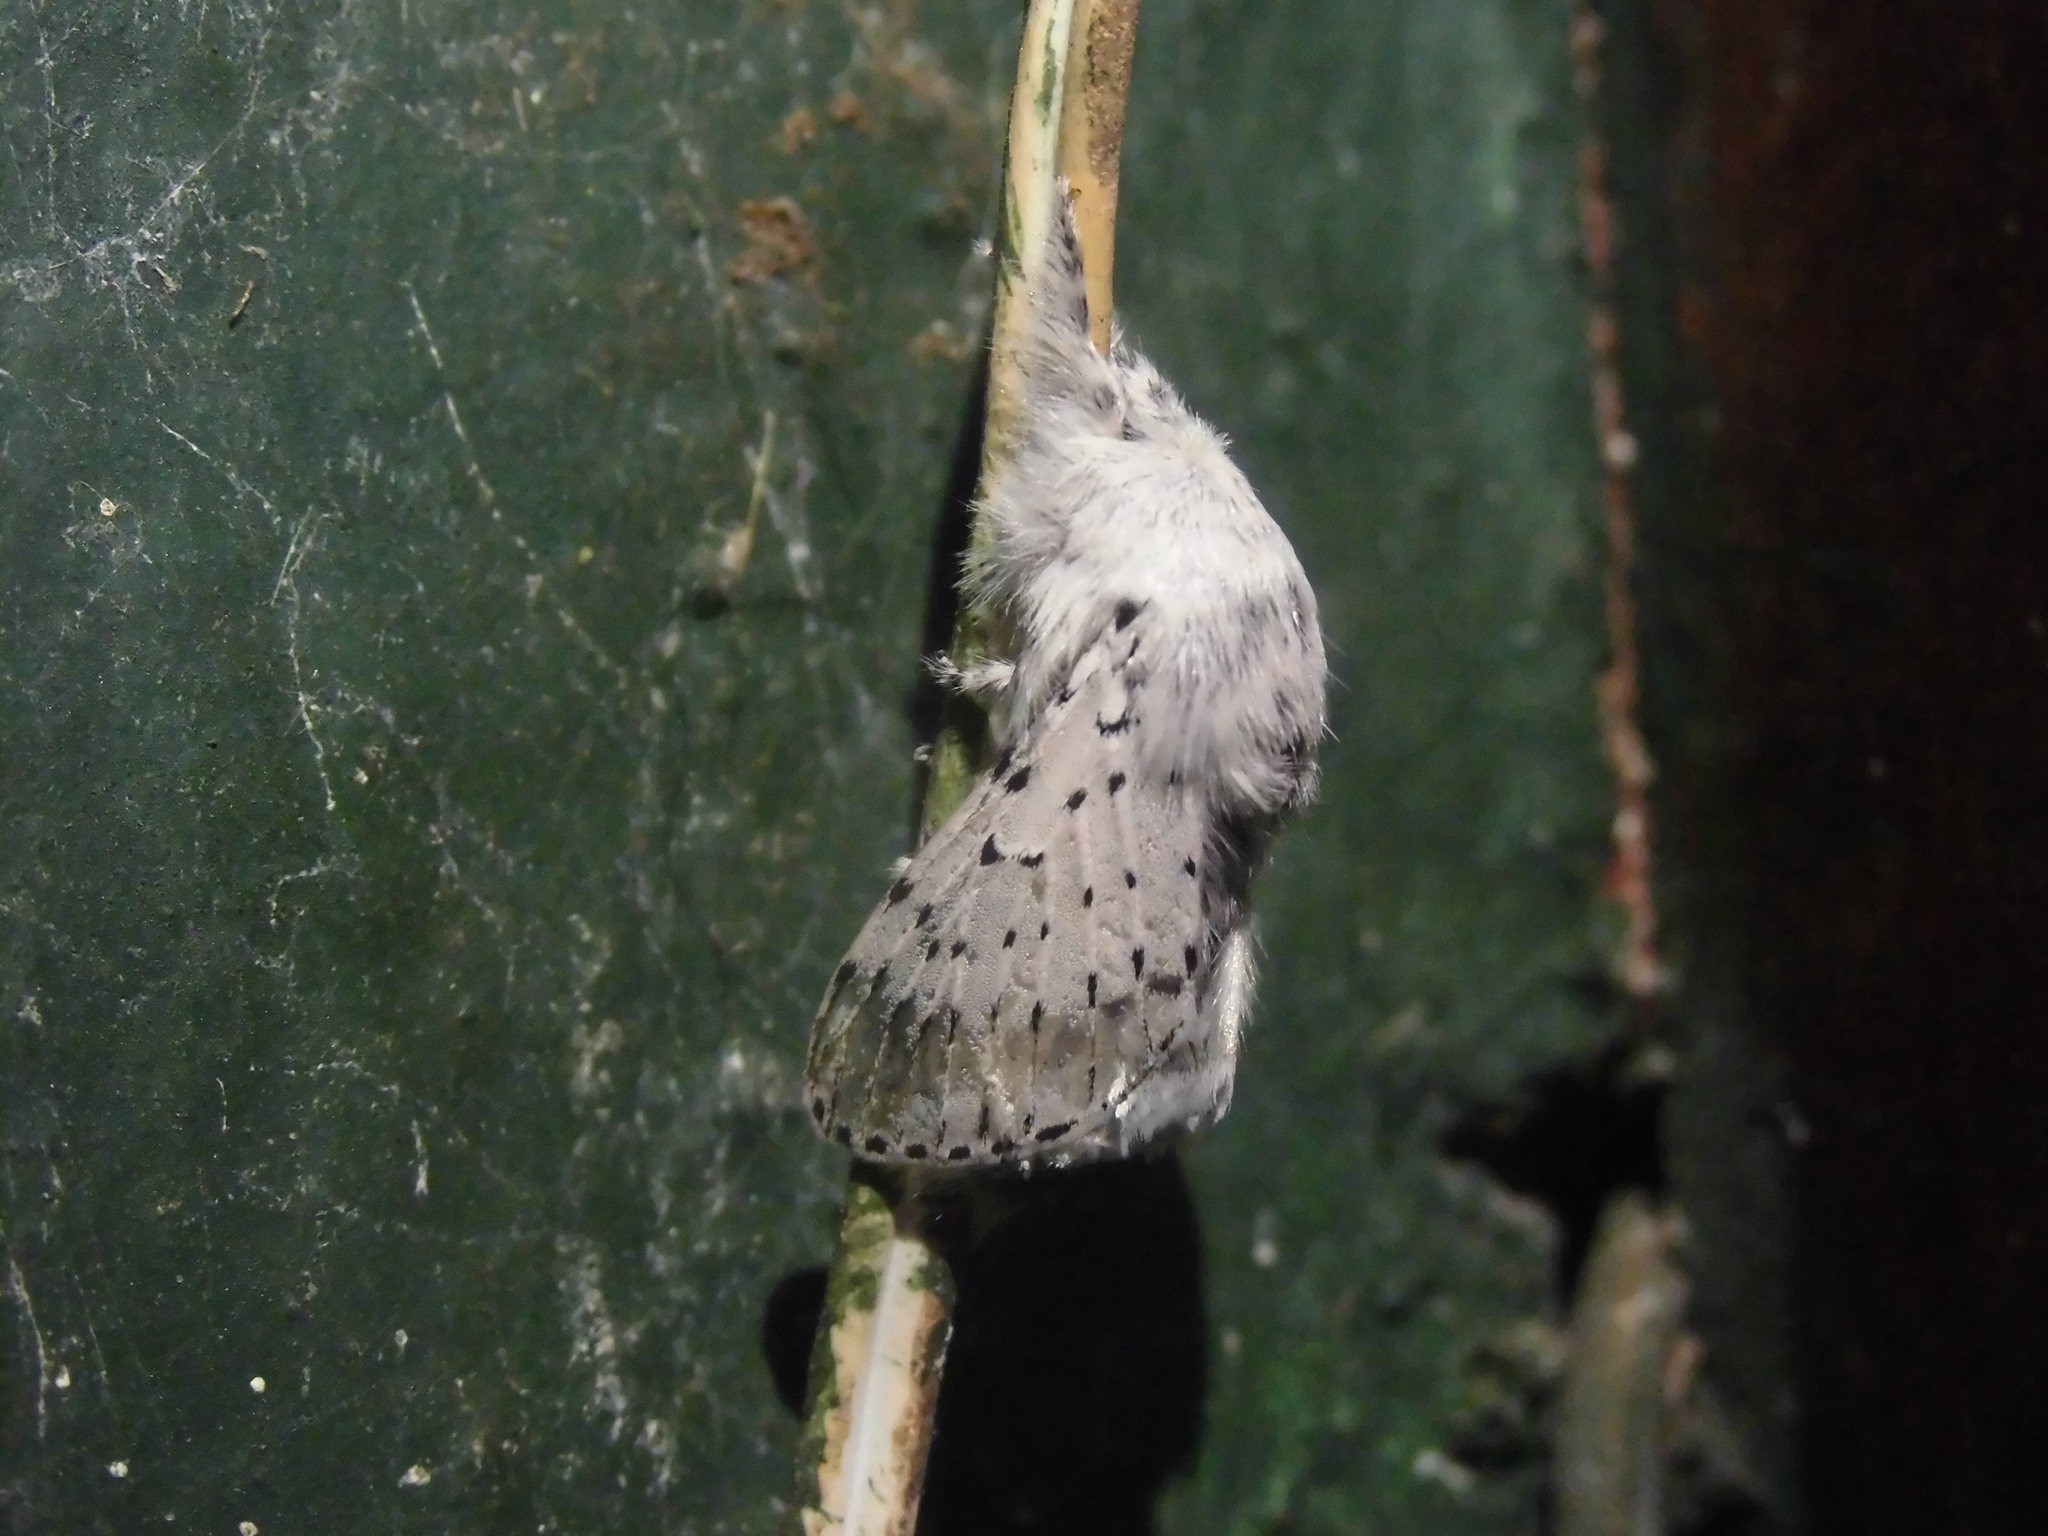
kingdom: Animalia
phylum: Arthropoda
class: Insecta
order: Lepidoptera
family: Lasiocampidae
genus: Artace
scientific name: Artace cribrarius
